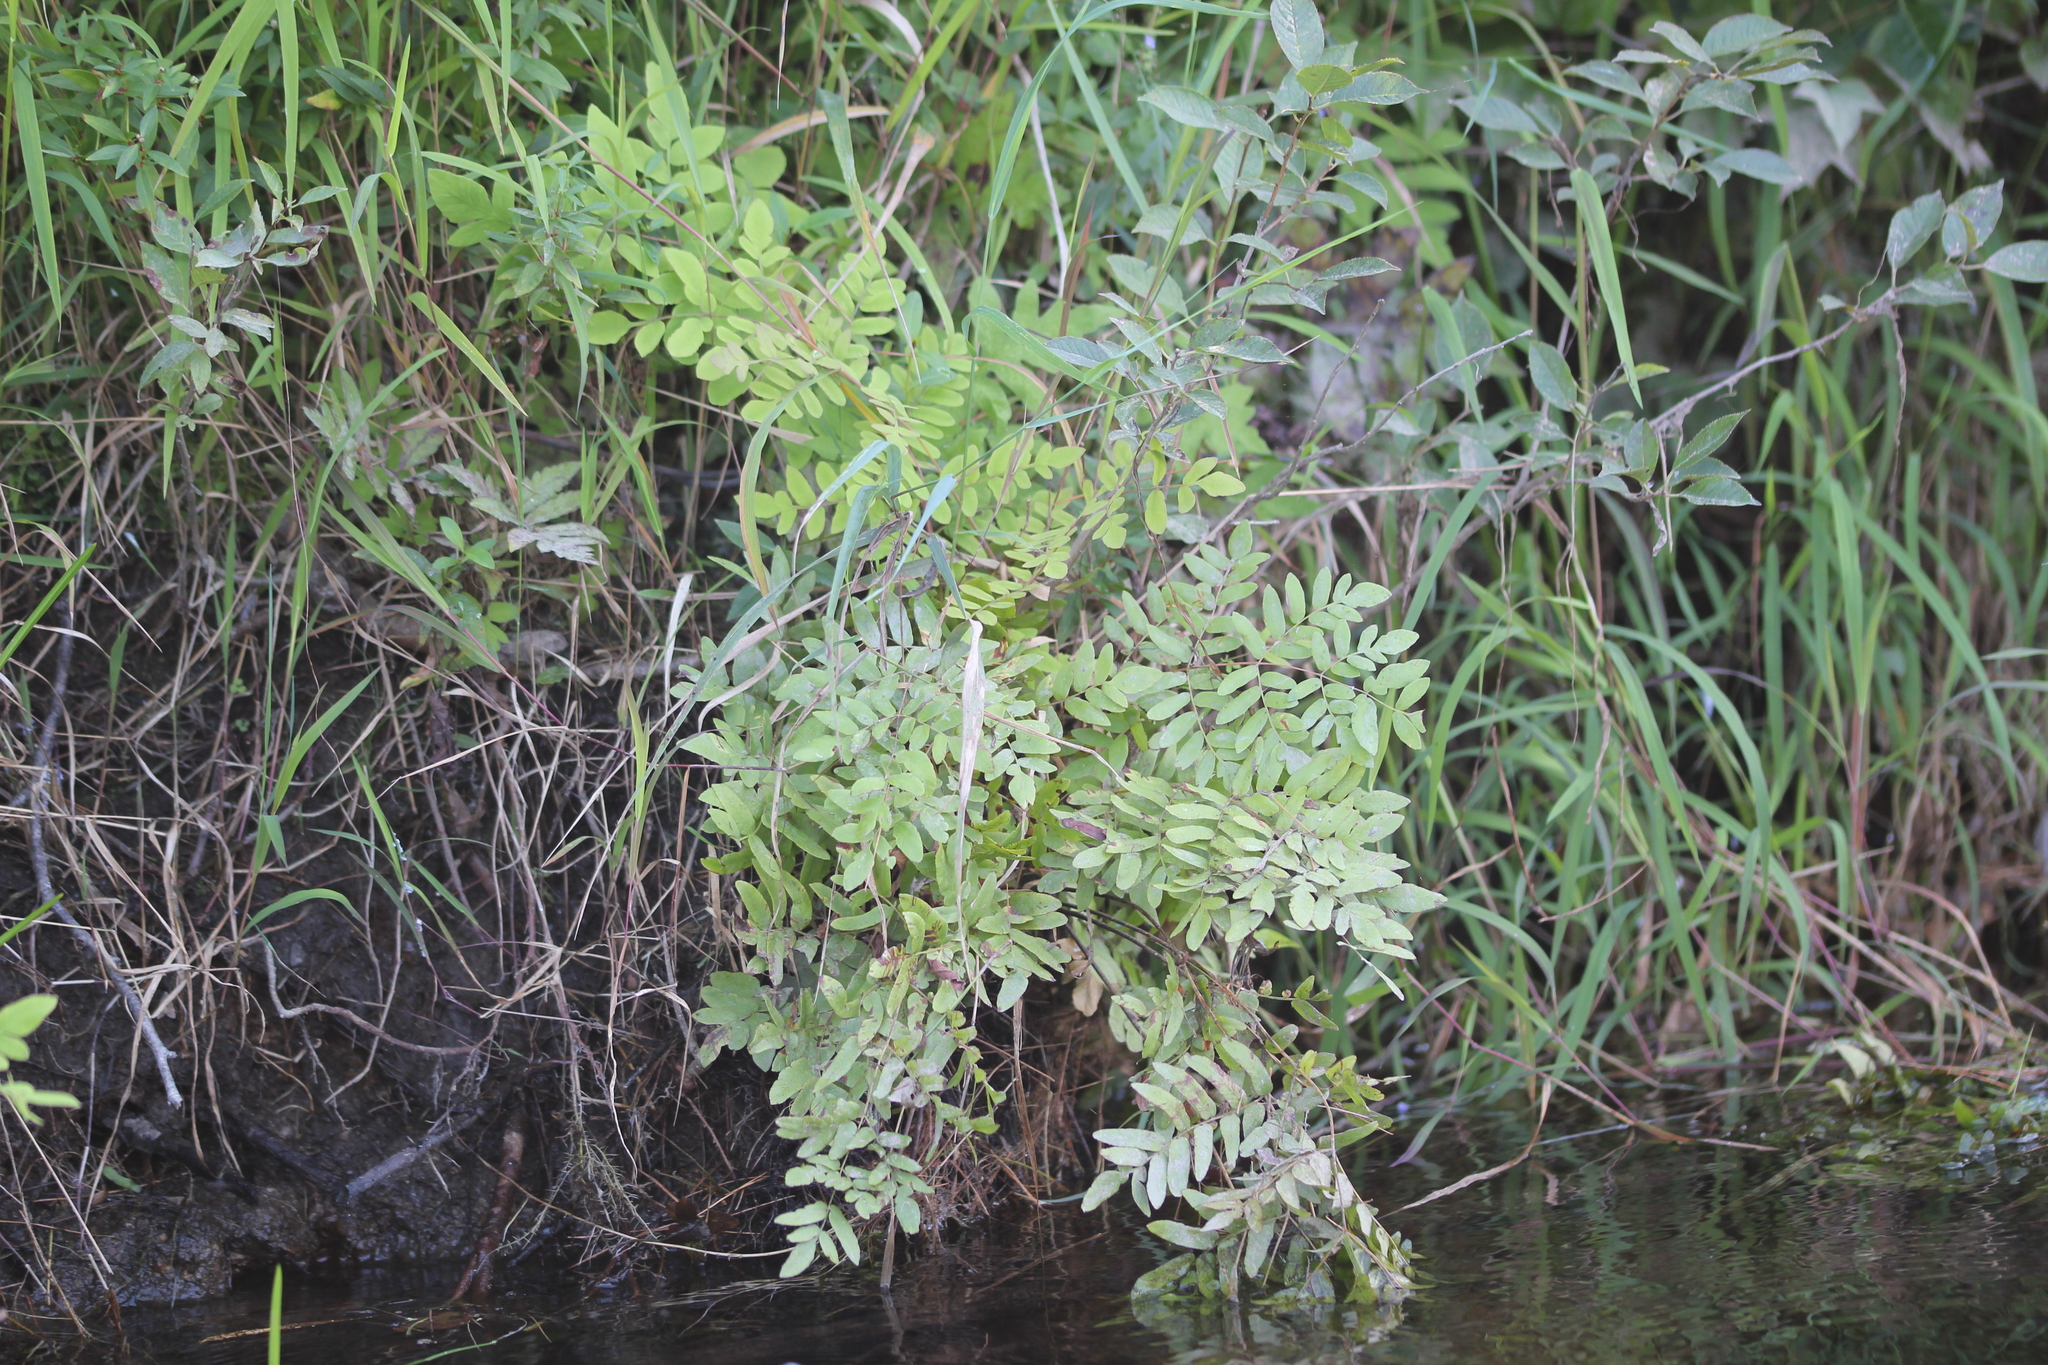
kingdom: Plantae
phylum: Tracheophyta
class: Polypodiopsida
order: Osmundales
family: Osmundaceae
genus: Osmunda
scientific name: Osmunda spectabilis
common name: American royal fern
